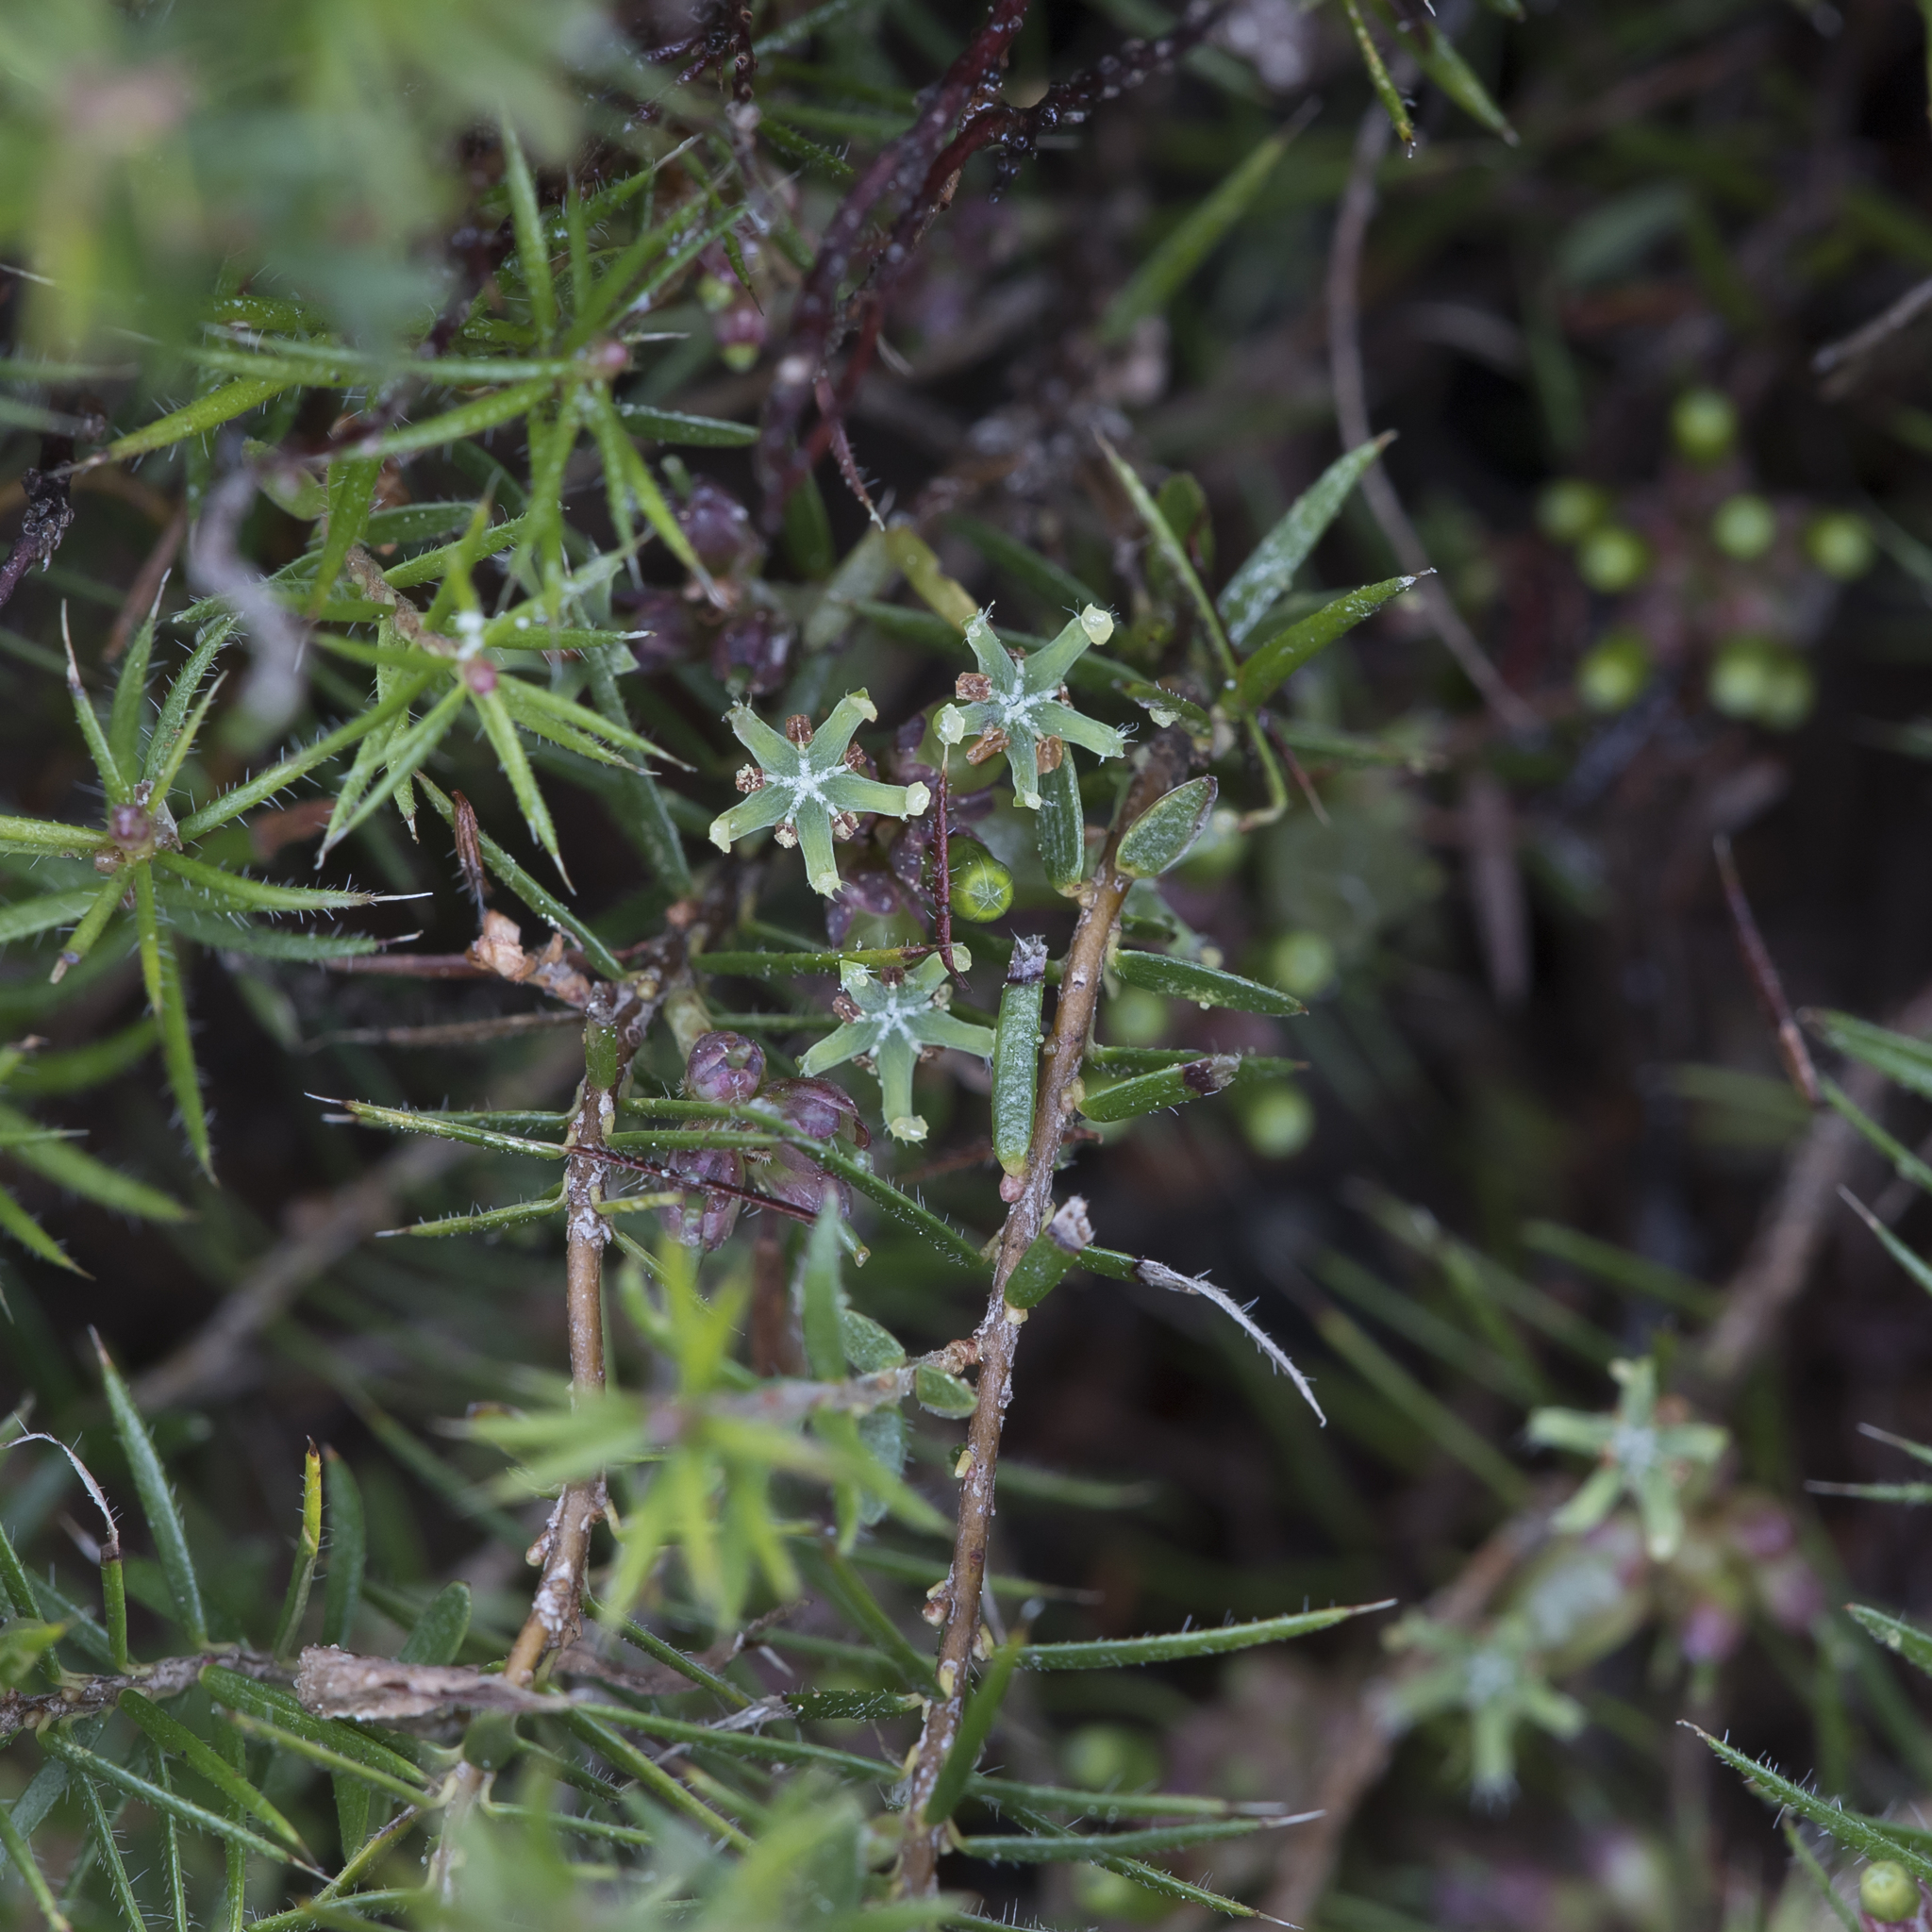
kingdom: Plantae
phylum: Tracheophyta
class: Magnoliopsida
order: Ericales
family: Ericaceae
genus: Acrotriche
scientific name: Acrotriche serrulata
